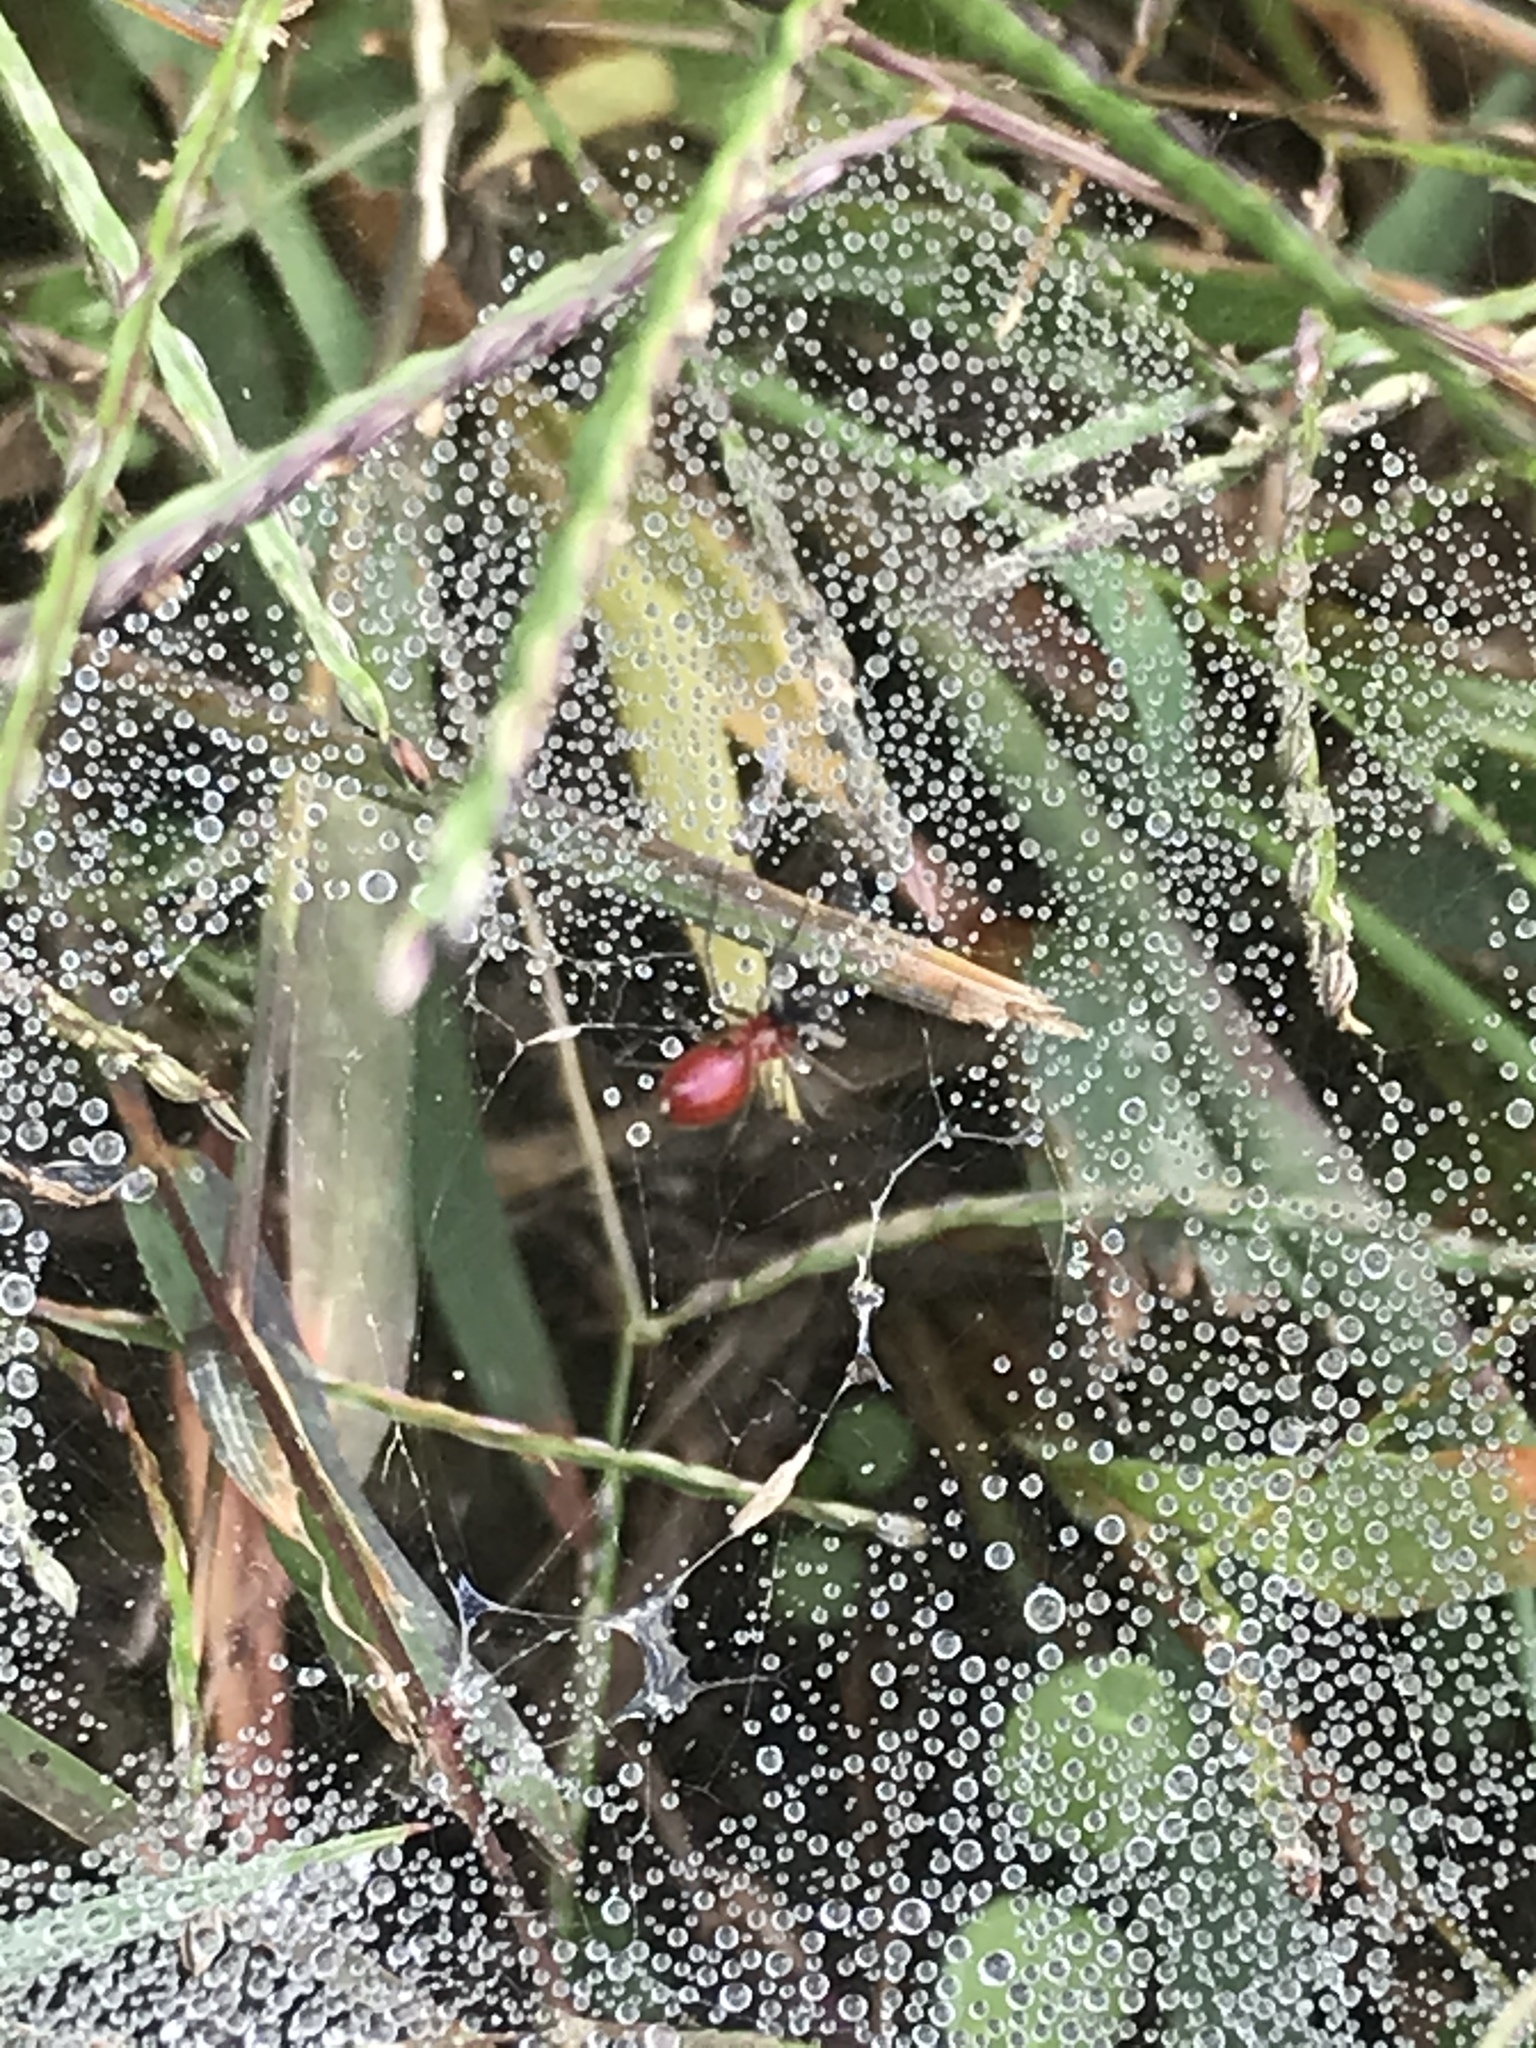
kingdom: Animalia
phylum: Arthropoda
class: Arachnida
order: Araneae
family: Linyphiidae
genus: Florinda
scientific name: Florinda coccinea
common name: Black-tailed red sheetweaver
